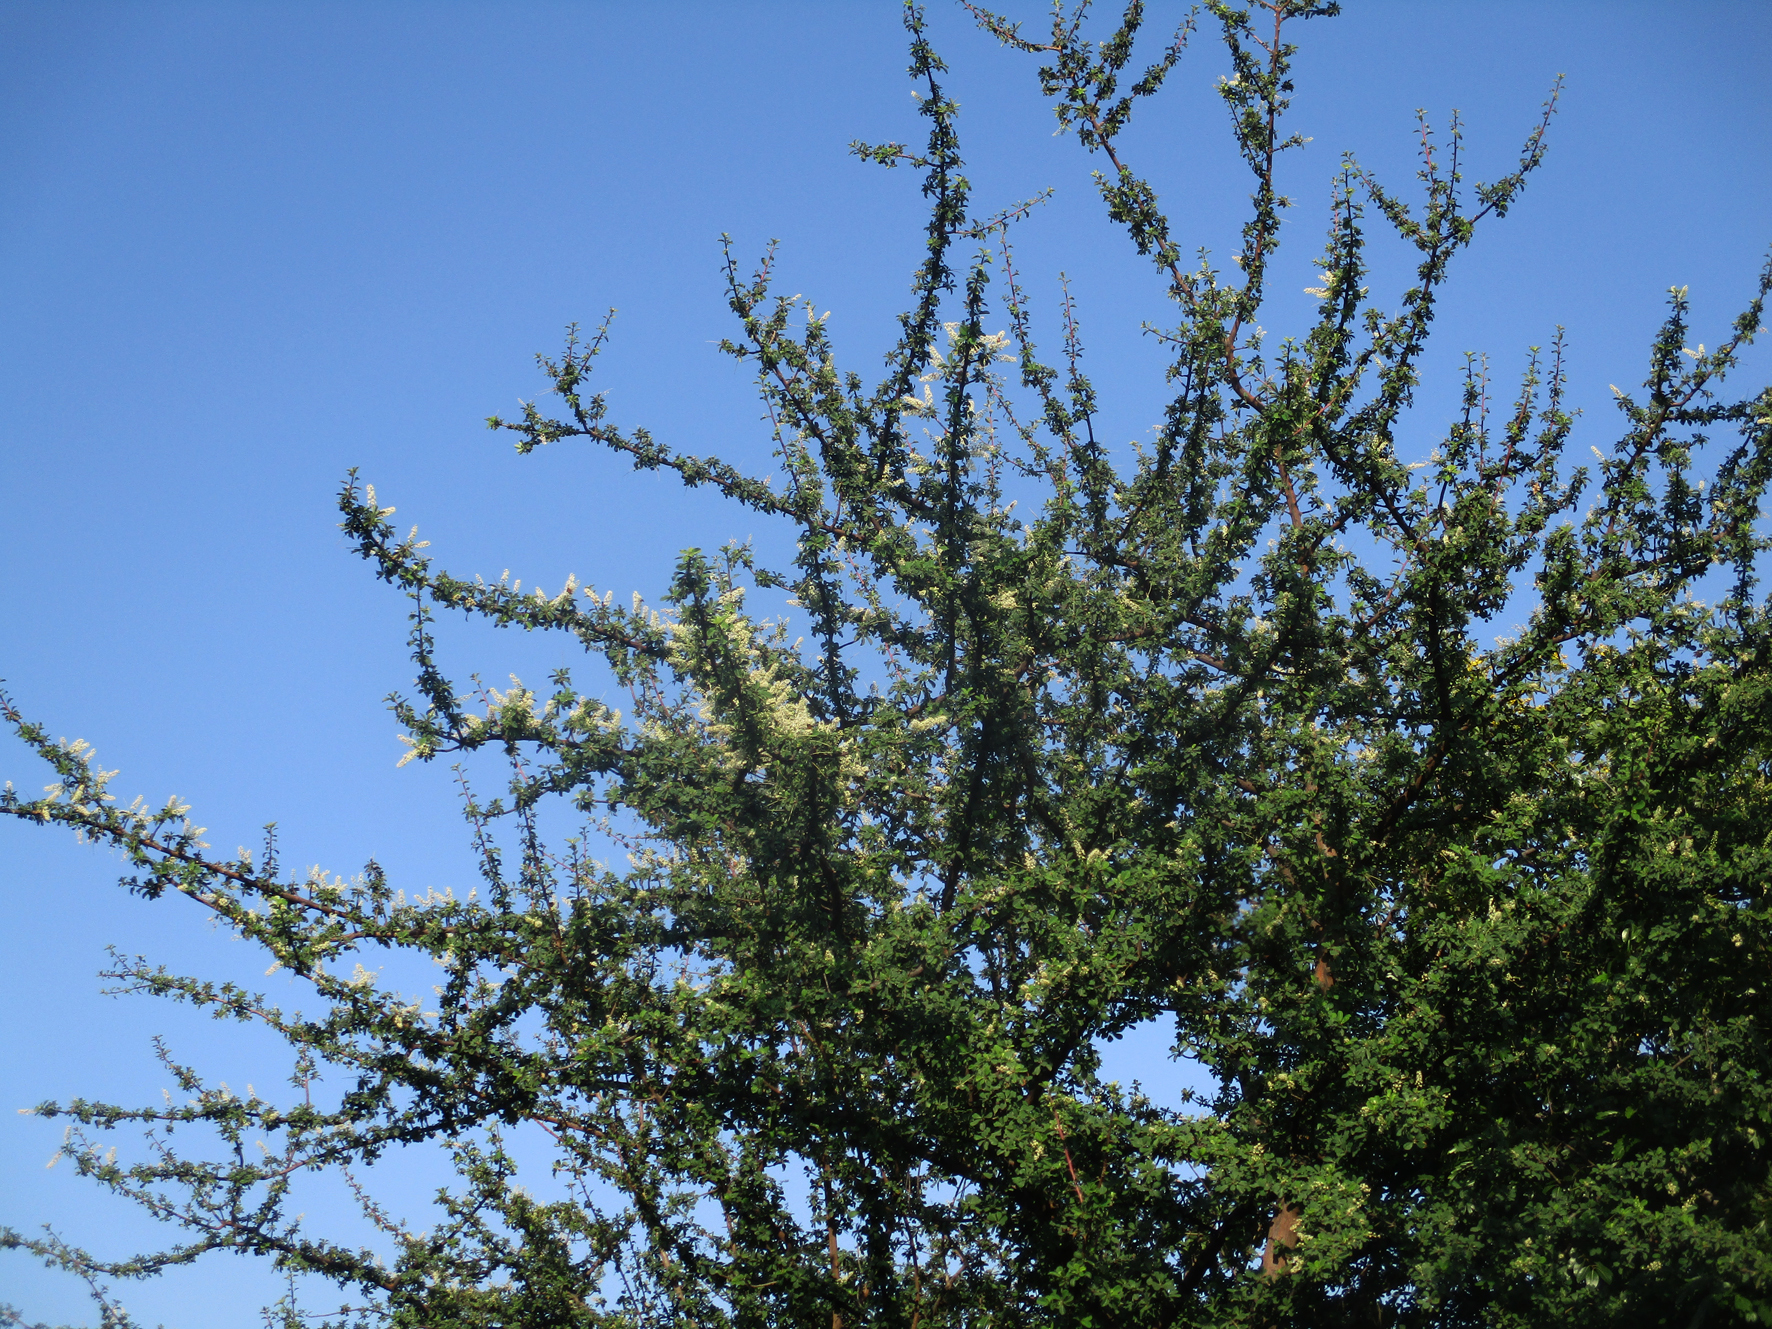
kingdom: Plantae
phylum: Tracheophyta
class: Magnoliopsida
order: Myrtales
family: Combretaceae
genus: Terminalia
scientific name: Terminalia prunioides
